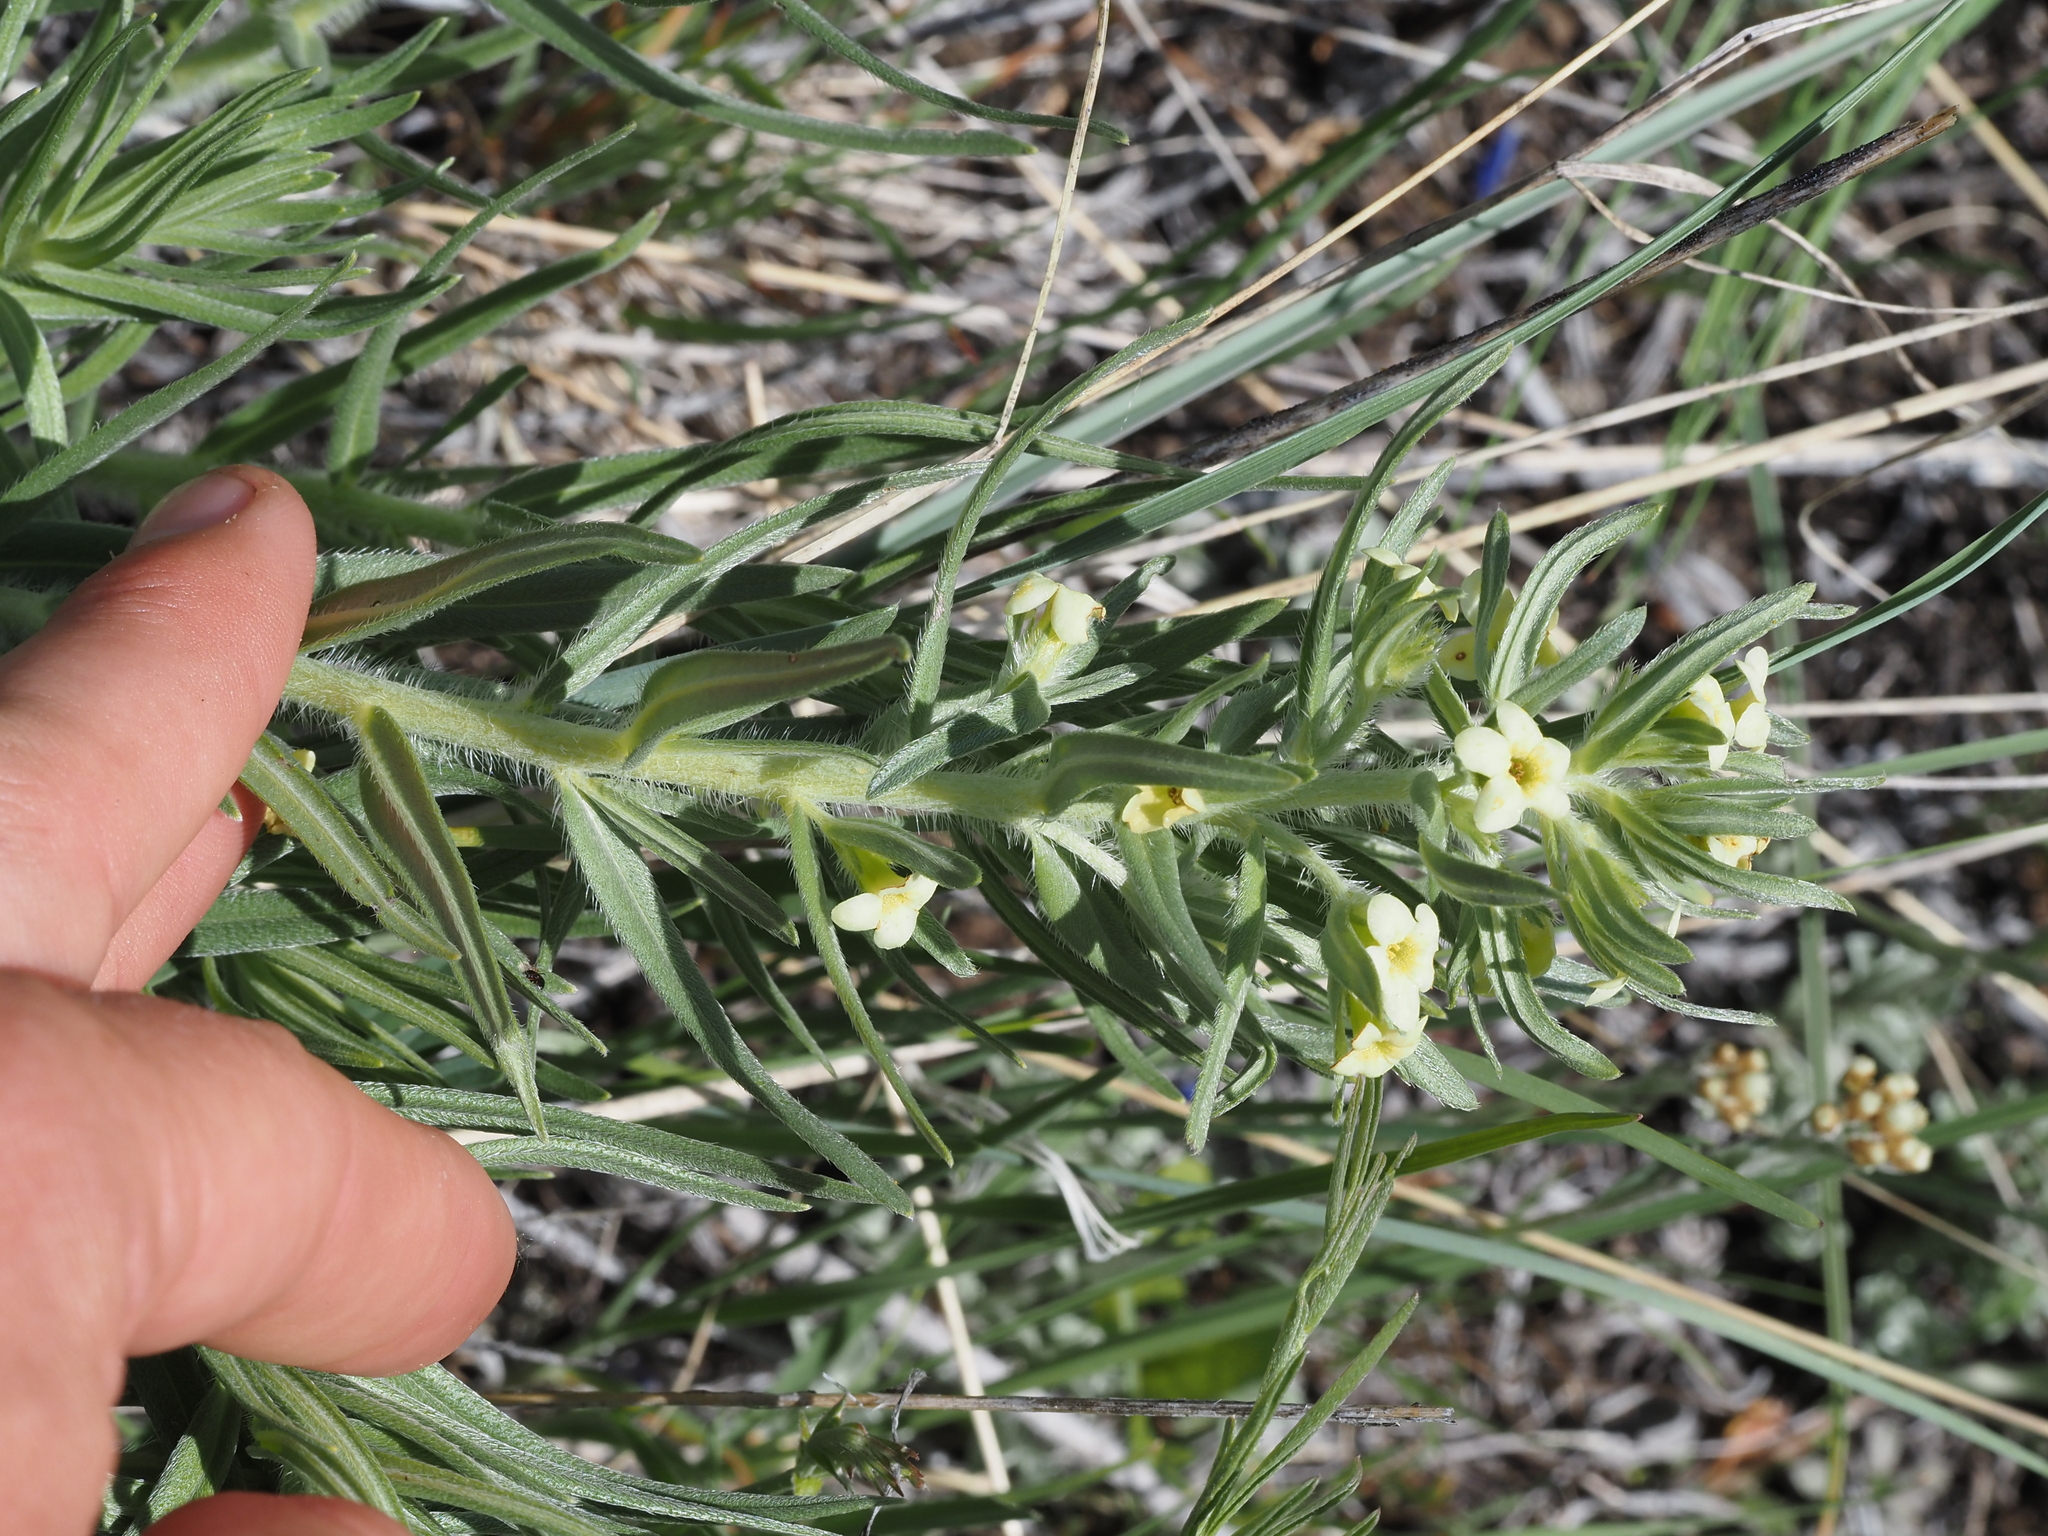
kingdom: Plantae
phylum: Tracheophyta
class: Magnoliopsida
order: Boraginales
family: Boraginaceae
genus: Lithospermum
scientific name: Lithospermum ruderale
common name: Western gromwell
